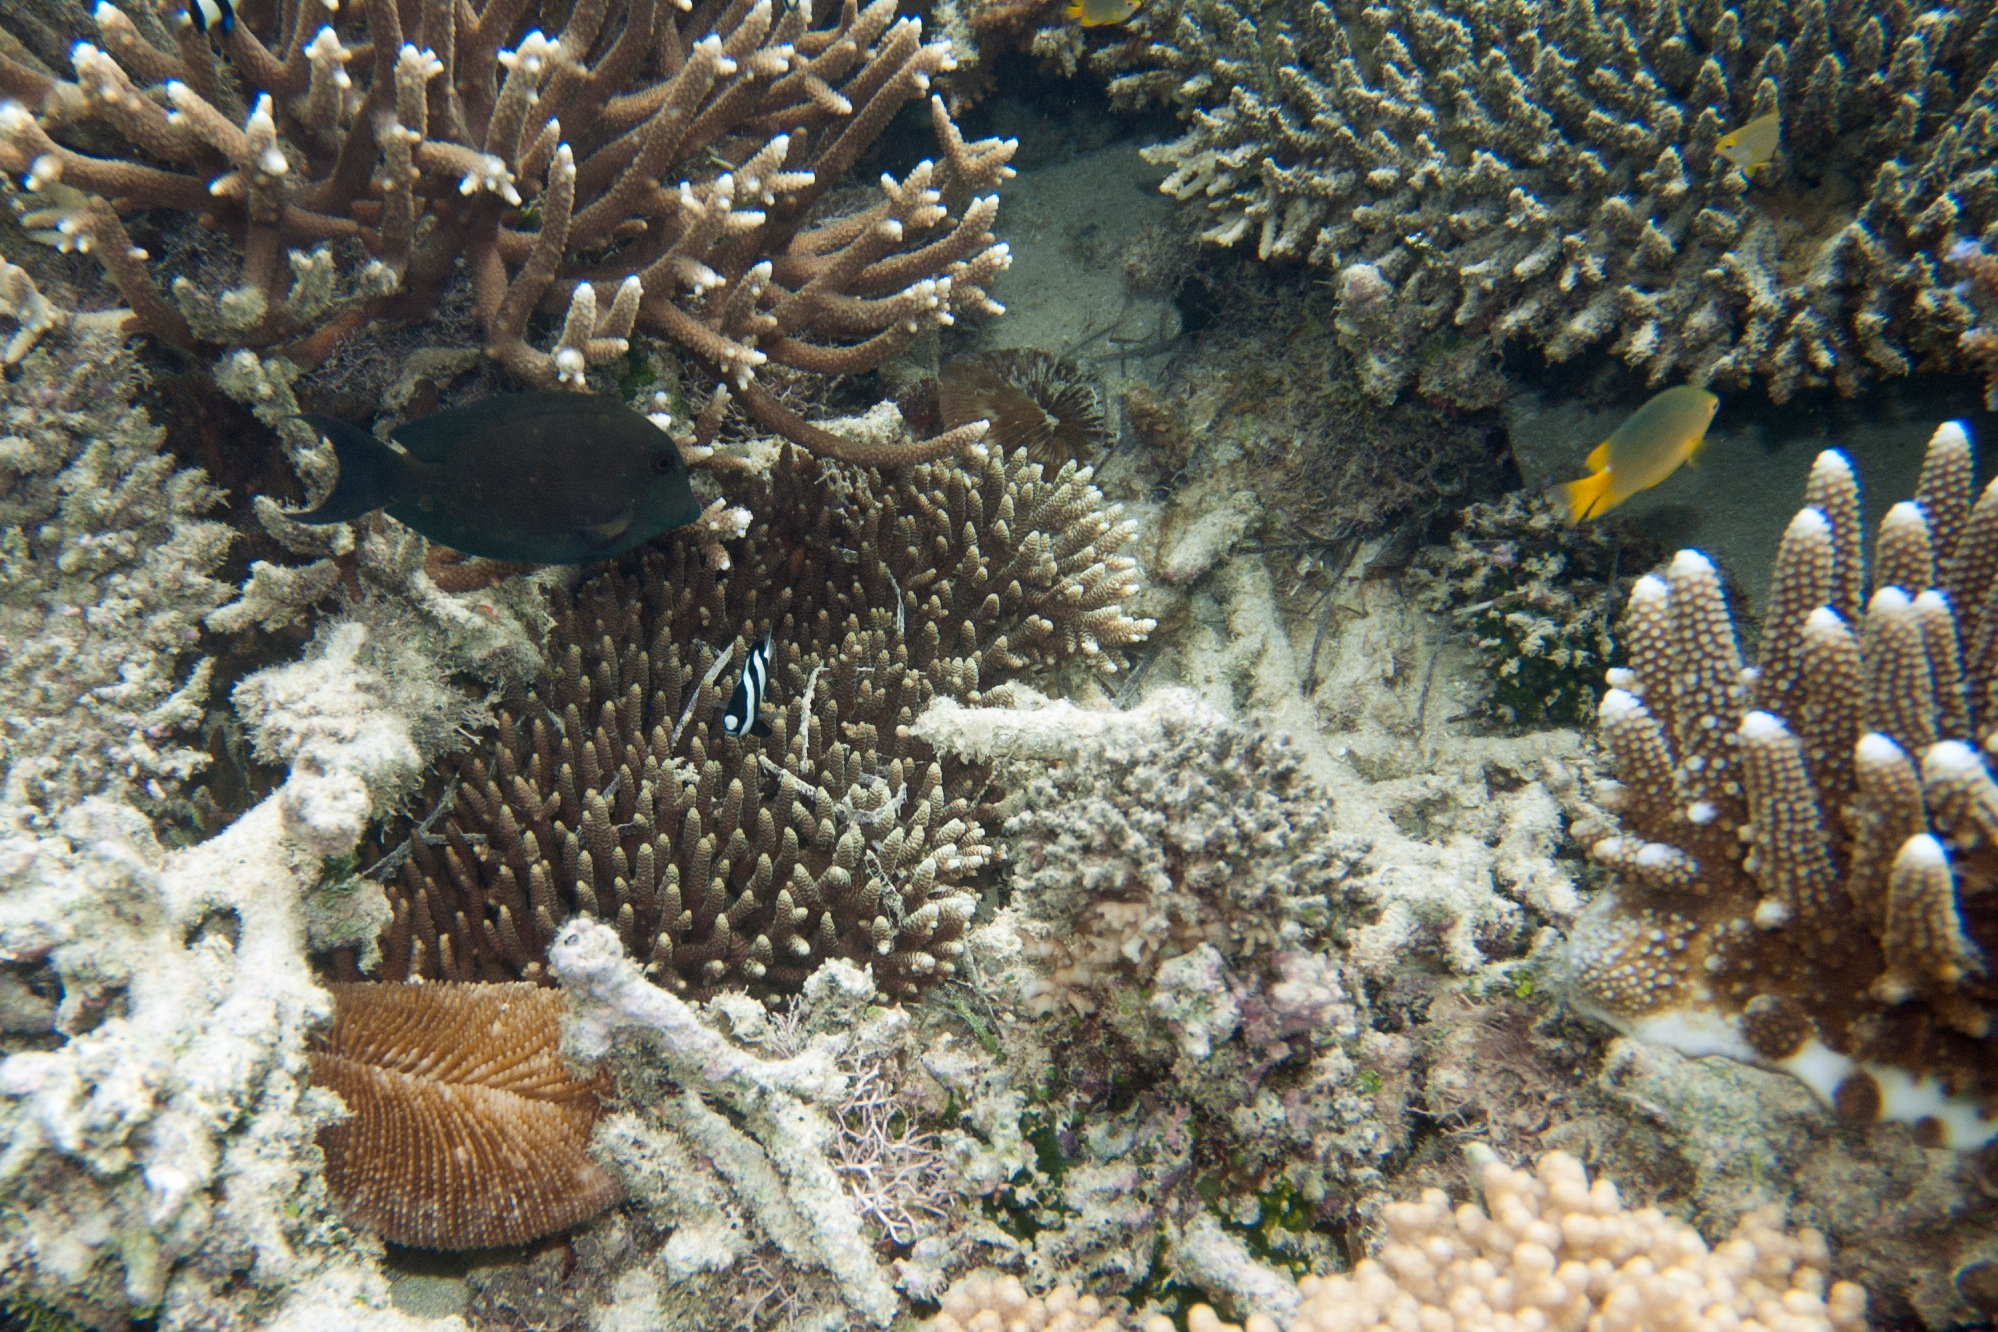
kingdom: Animalia
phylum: Cnidaria
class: Anthozoa
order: Scleractinia
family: Fungiidae
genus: Ctenactis
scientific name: Ctenactis echinata
